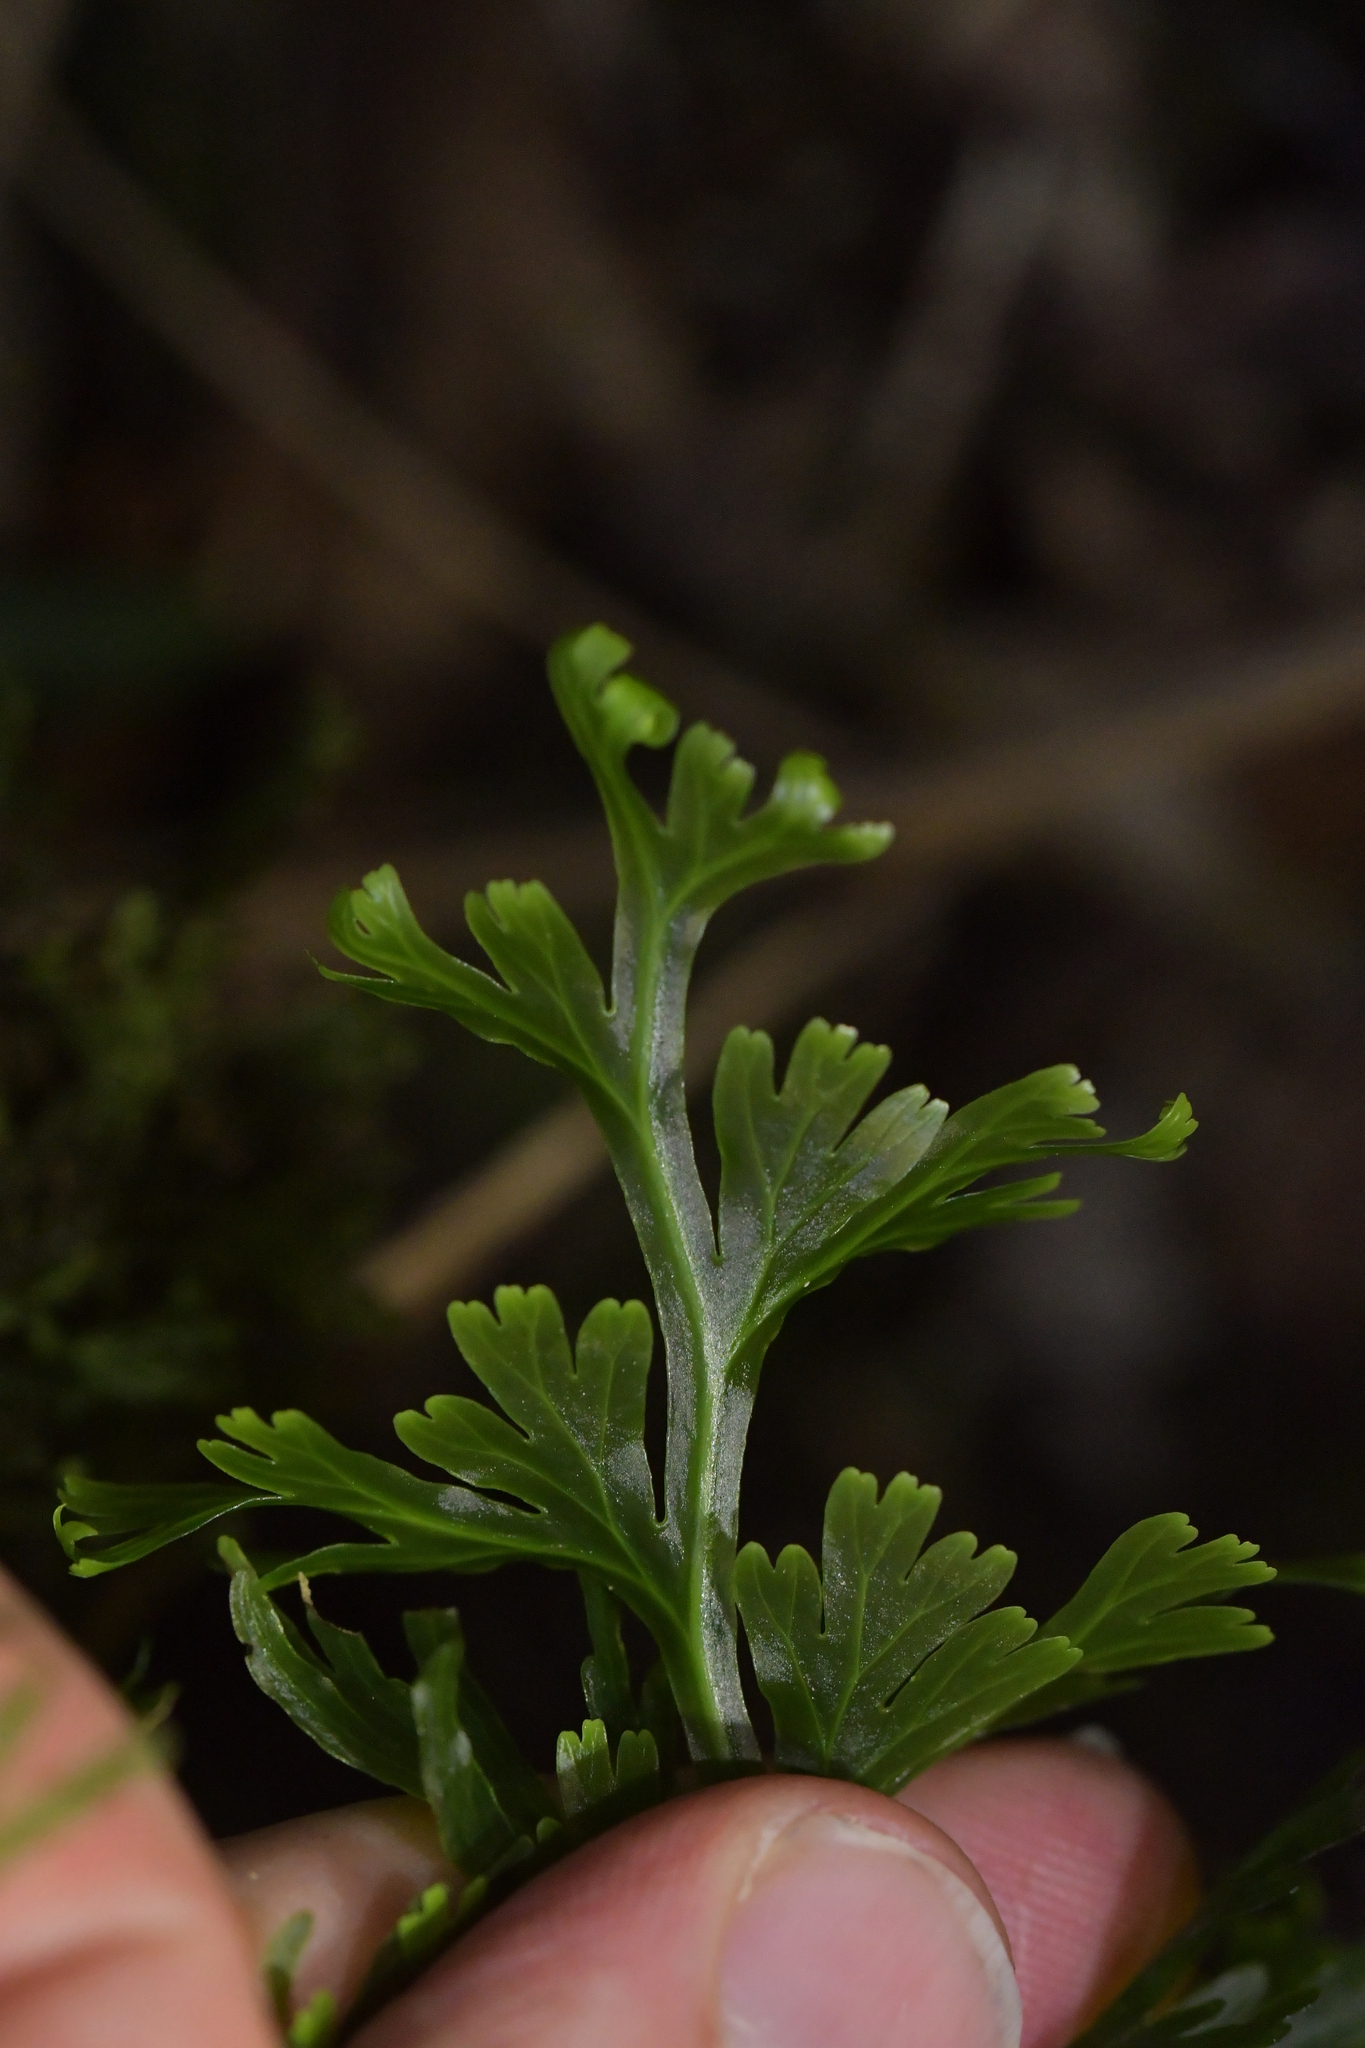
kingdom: Plantae
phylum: Tracheophyta
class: Polypodiopsida
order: Hymenophyllales
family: Hymenophyllaceae
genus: Hymenophyllum
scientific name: Hymenophyllum dilatatum
